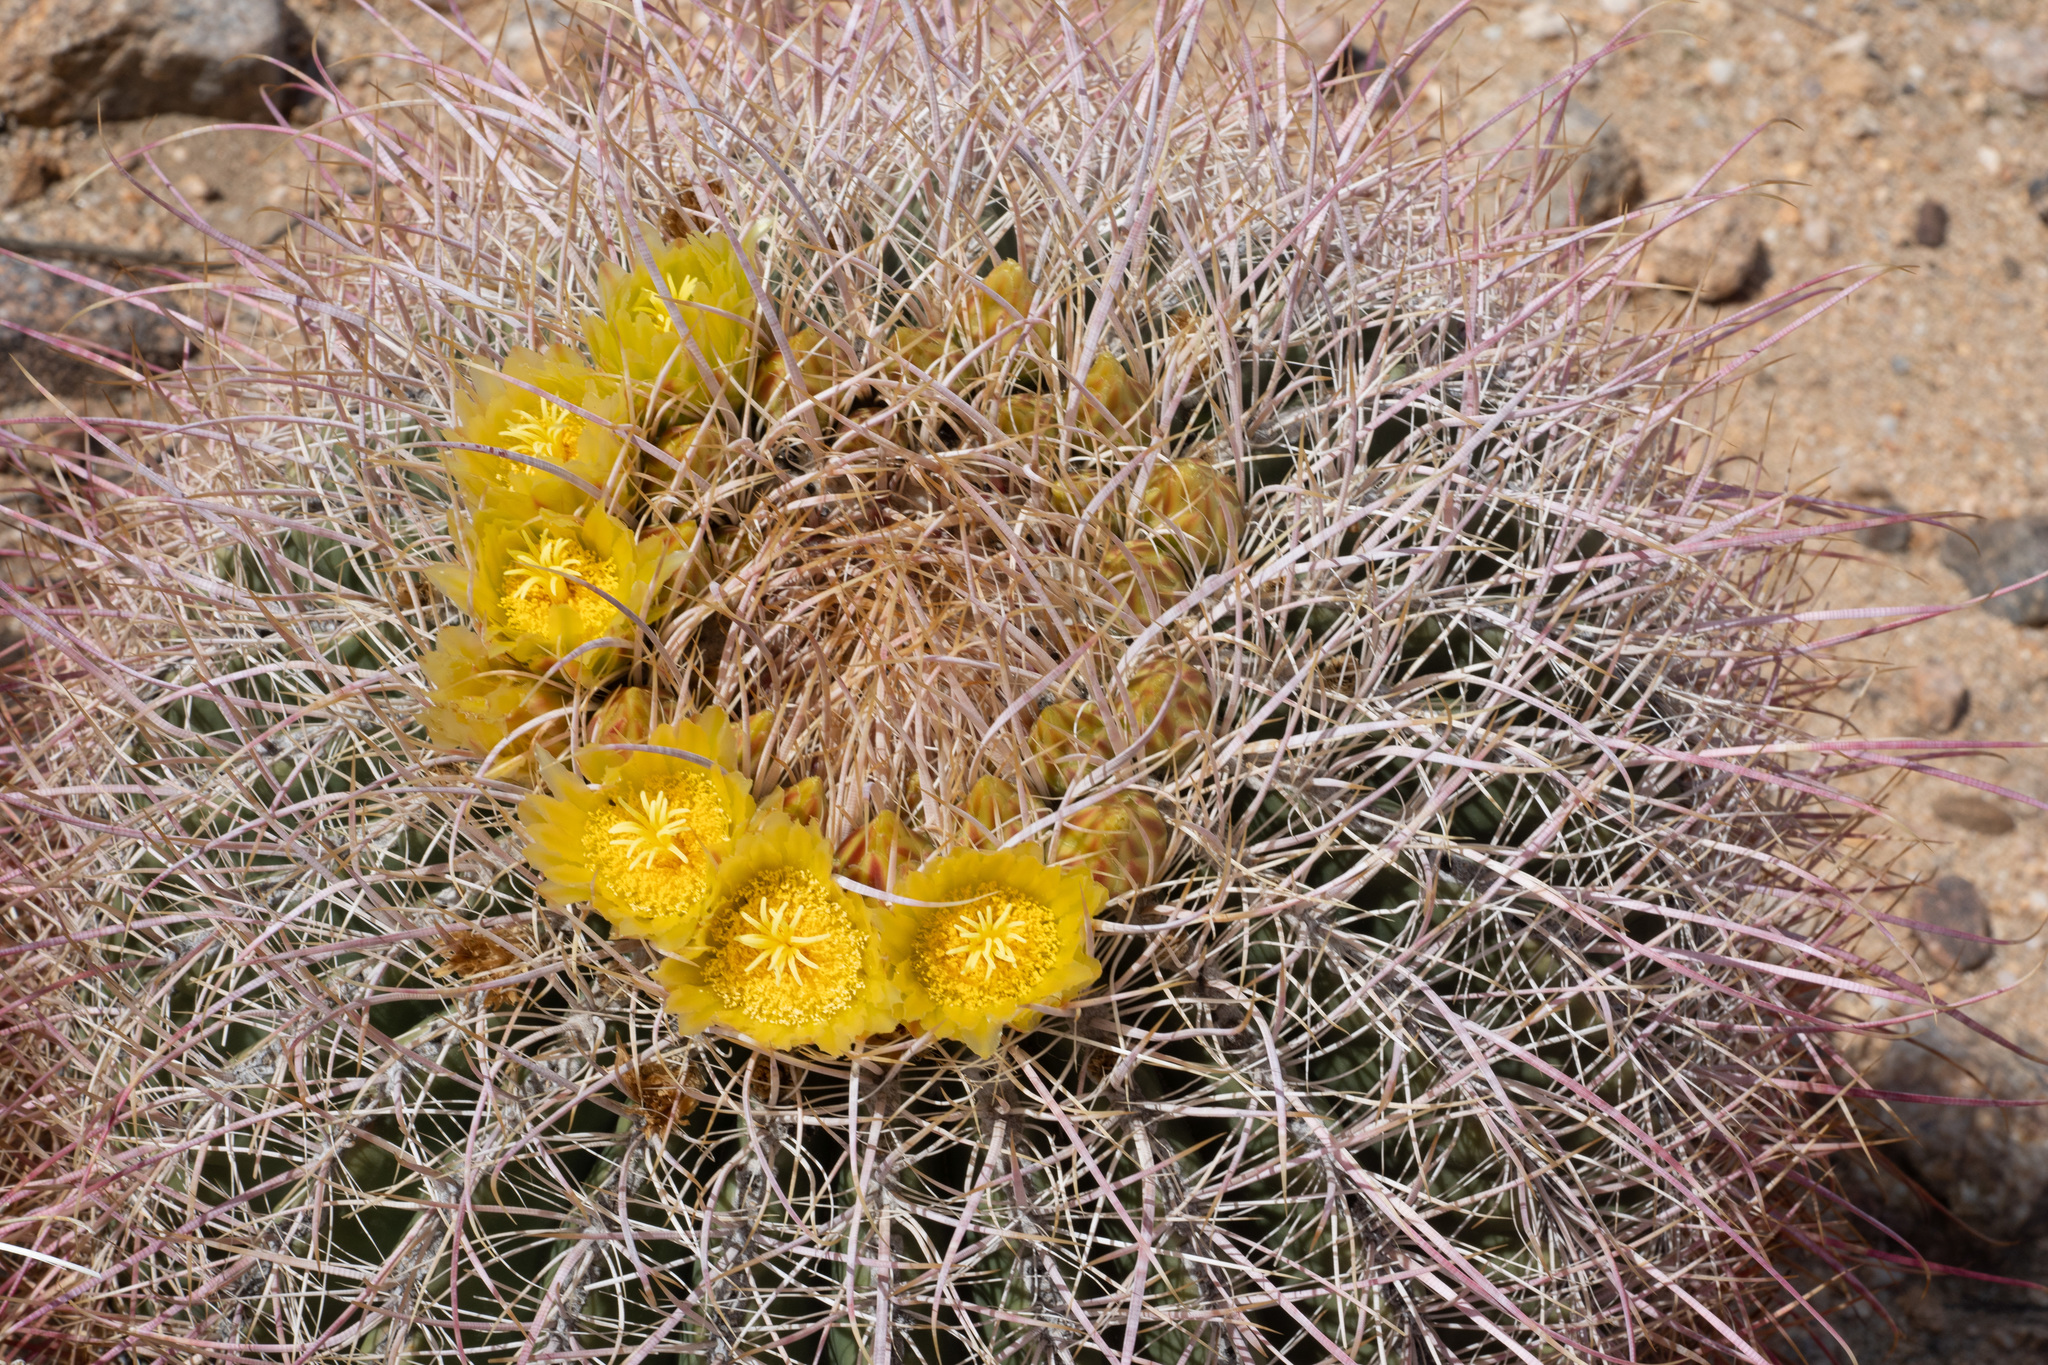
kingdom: Plantae
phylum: Tracheophyta
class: Magnoliopsida
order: Caryophyllales
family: Cactaceae
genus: Ferocactus
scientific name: Ferocactus cylindraceus
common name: California barrel cactus
